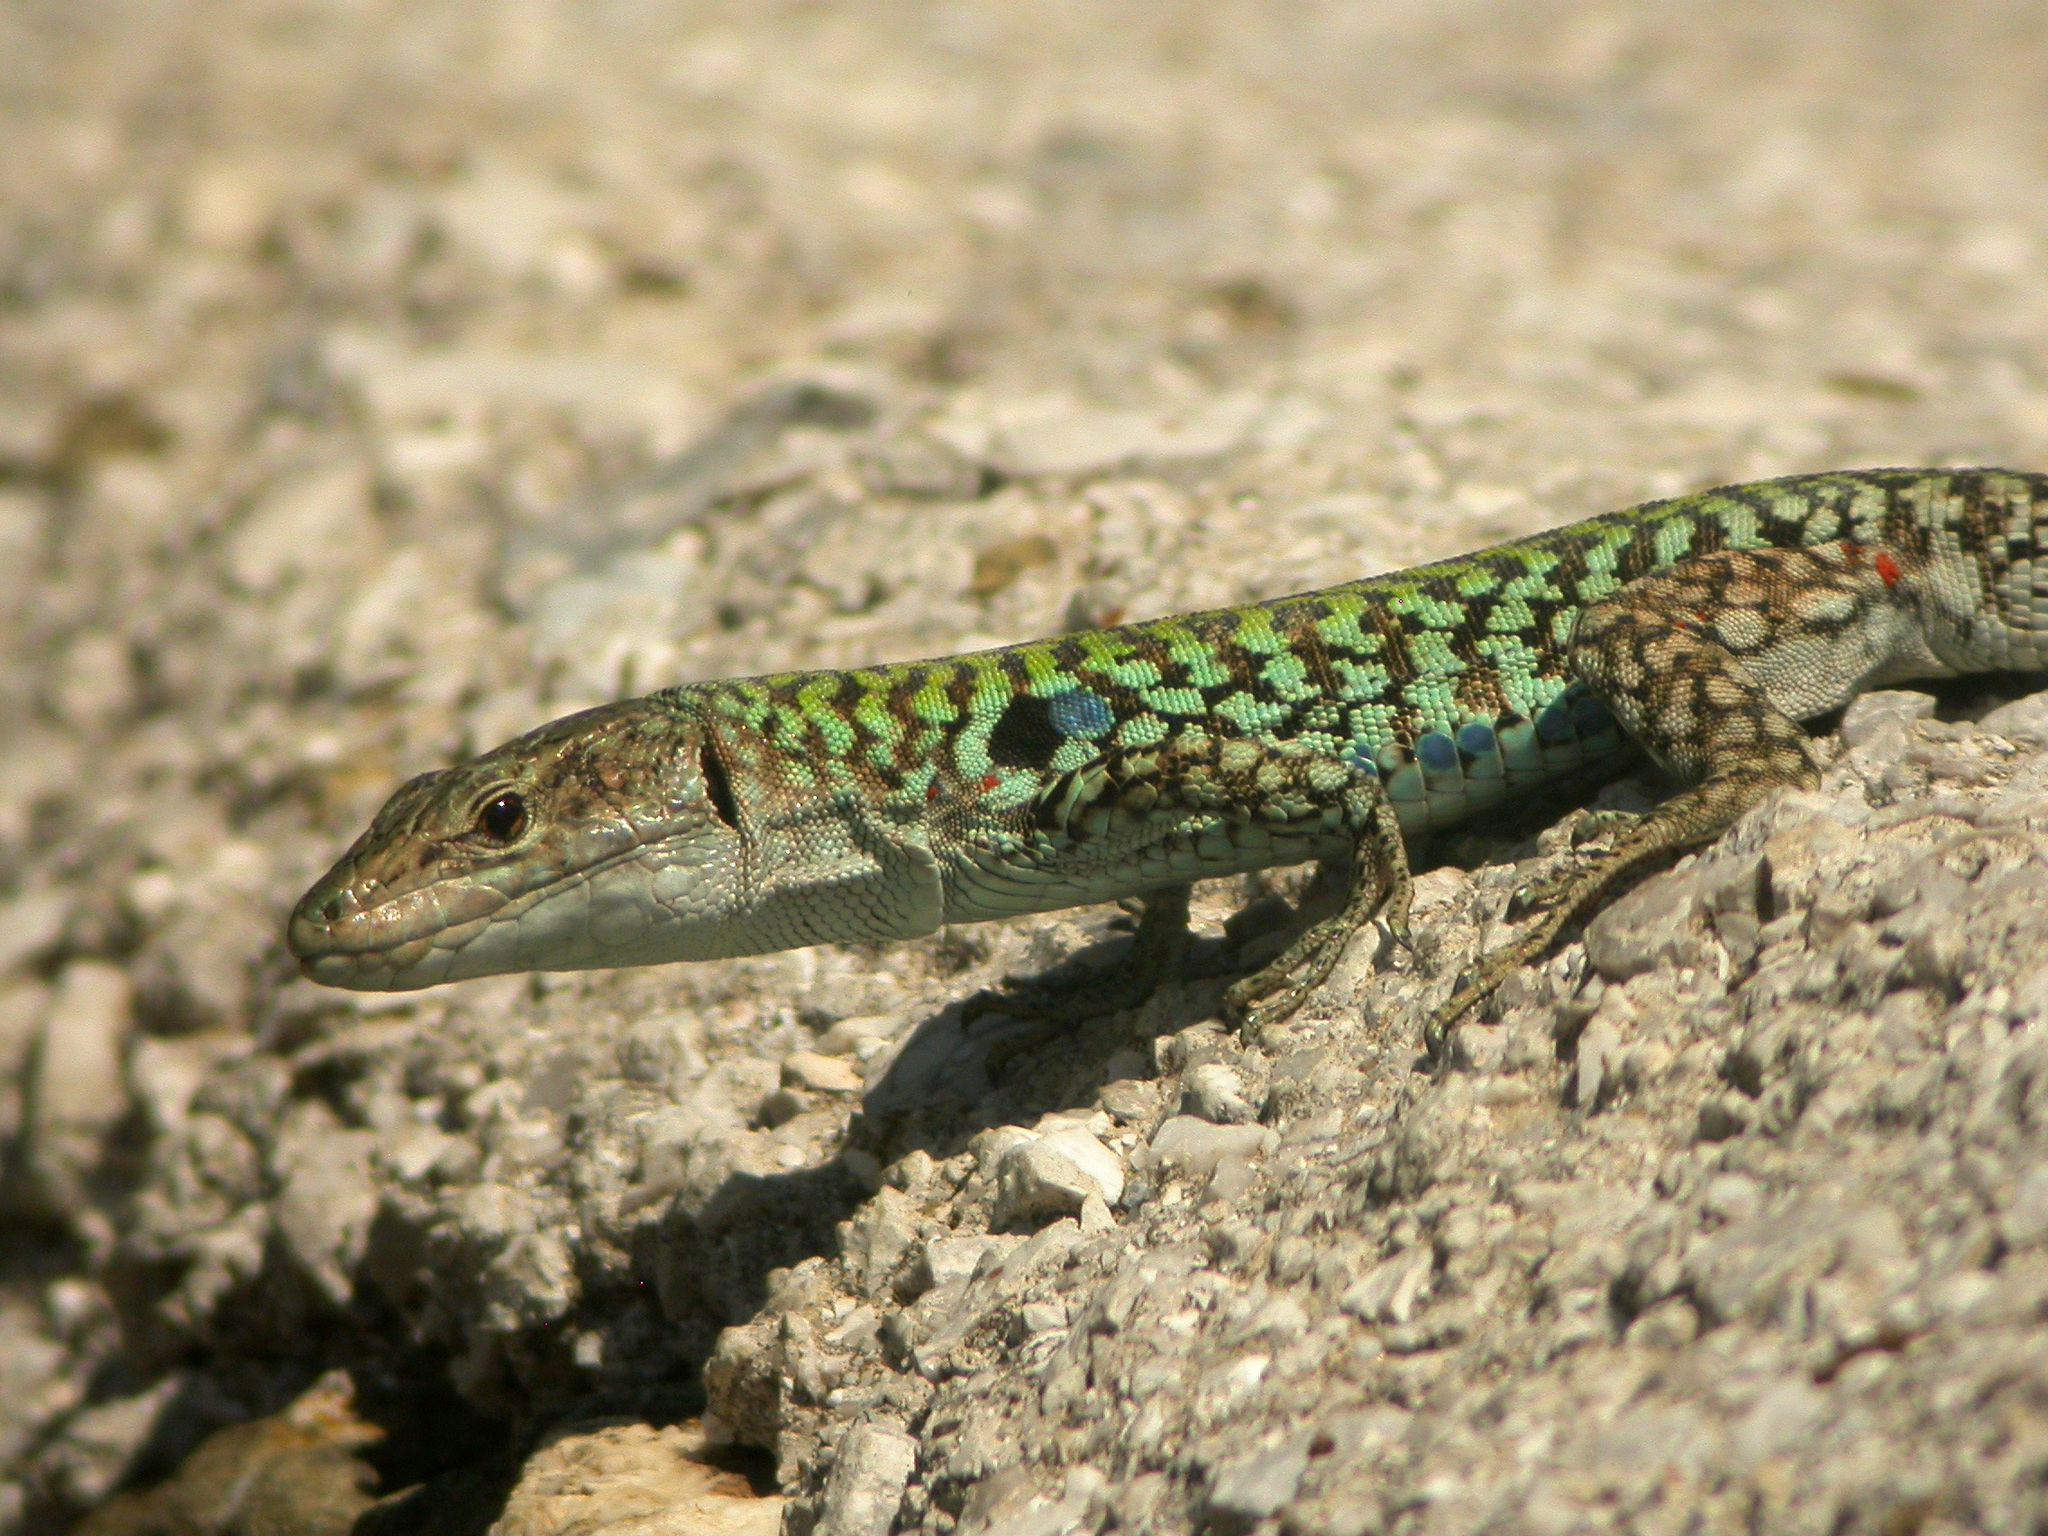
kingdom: Animalia
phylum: Chordata
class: Squamata
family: Lacertidae
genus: Podarcis
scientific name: Podarcis siculus
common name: Italian wall lizard
